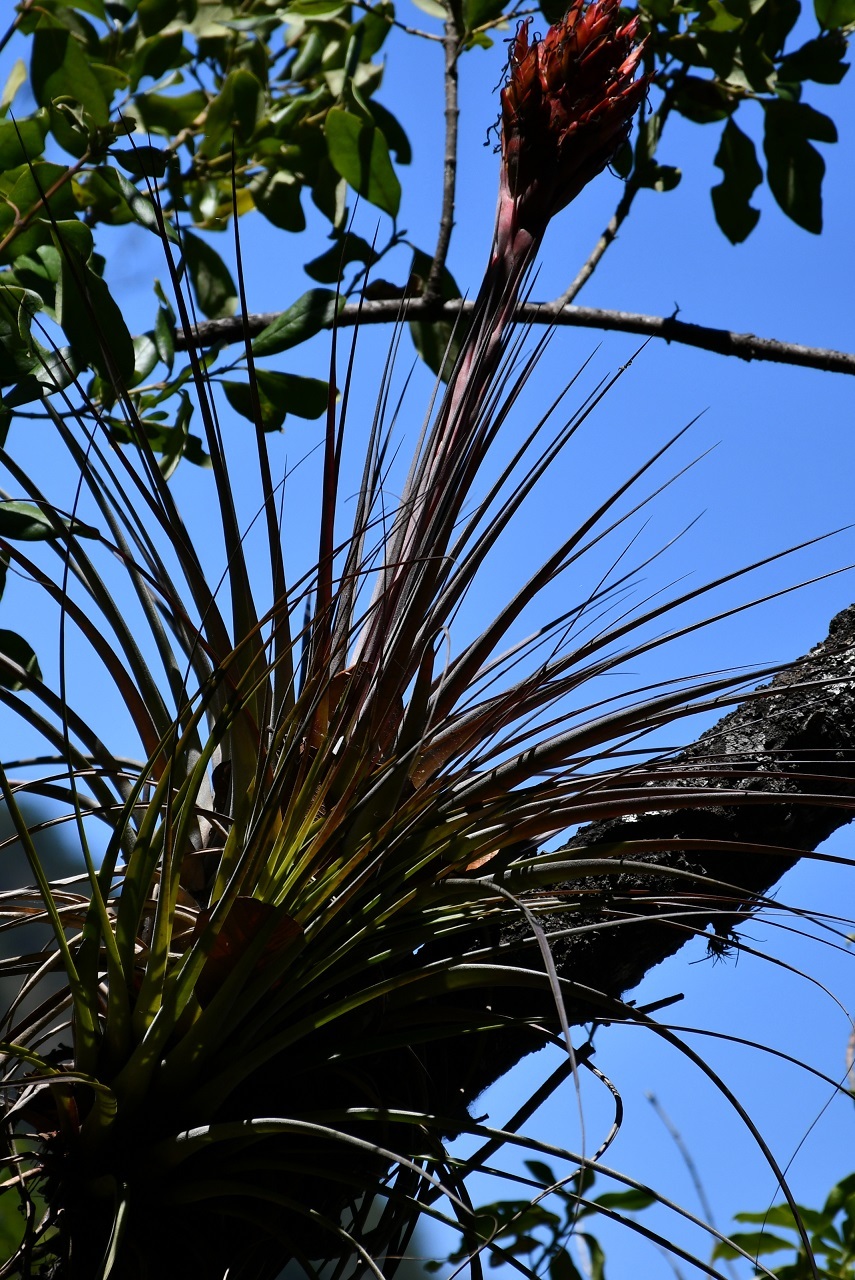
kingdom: Plantae
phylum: Tracheophyta
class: Liliopsida
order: Poales
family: Bromeliaceae
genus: Tillandsia
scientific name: Tillandsia rotundata
